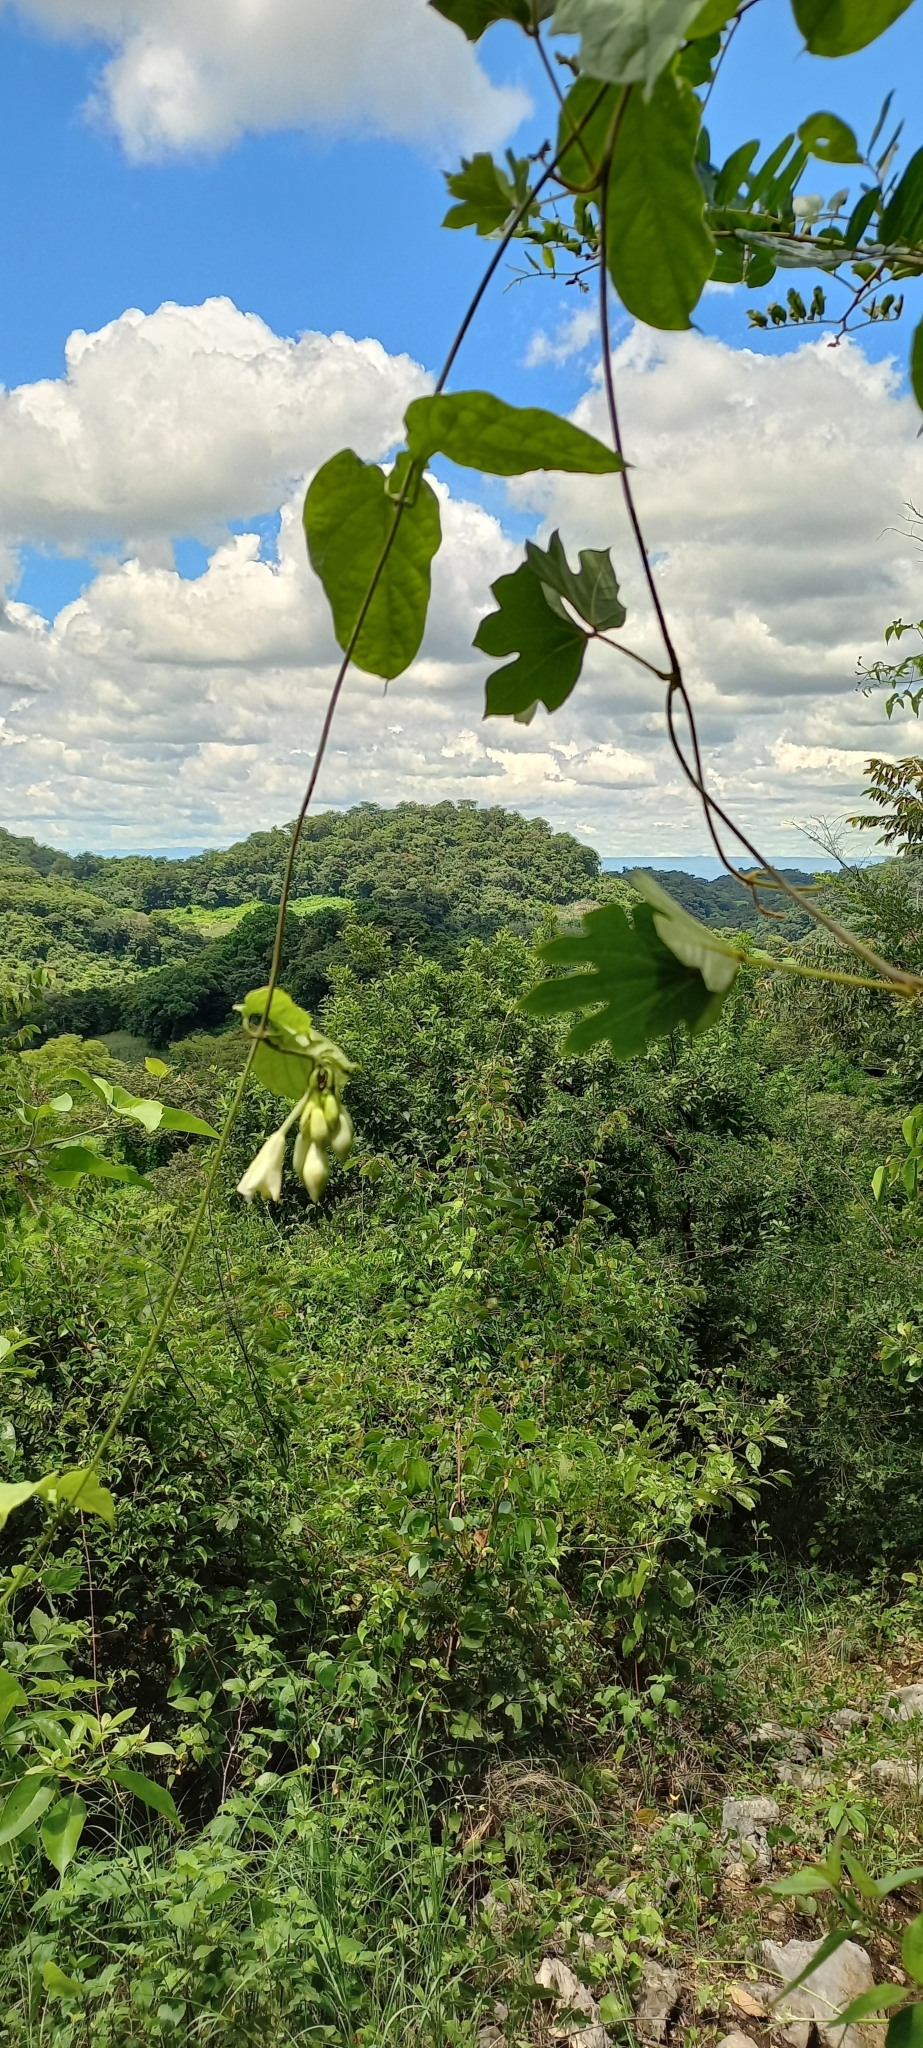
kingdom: Plantae
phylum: Tracheophyta
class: Magnoliopsida
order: Gentianales
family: Apocynaceae
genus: Echites
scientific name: Echites panduratus
